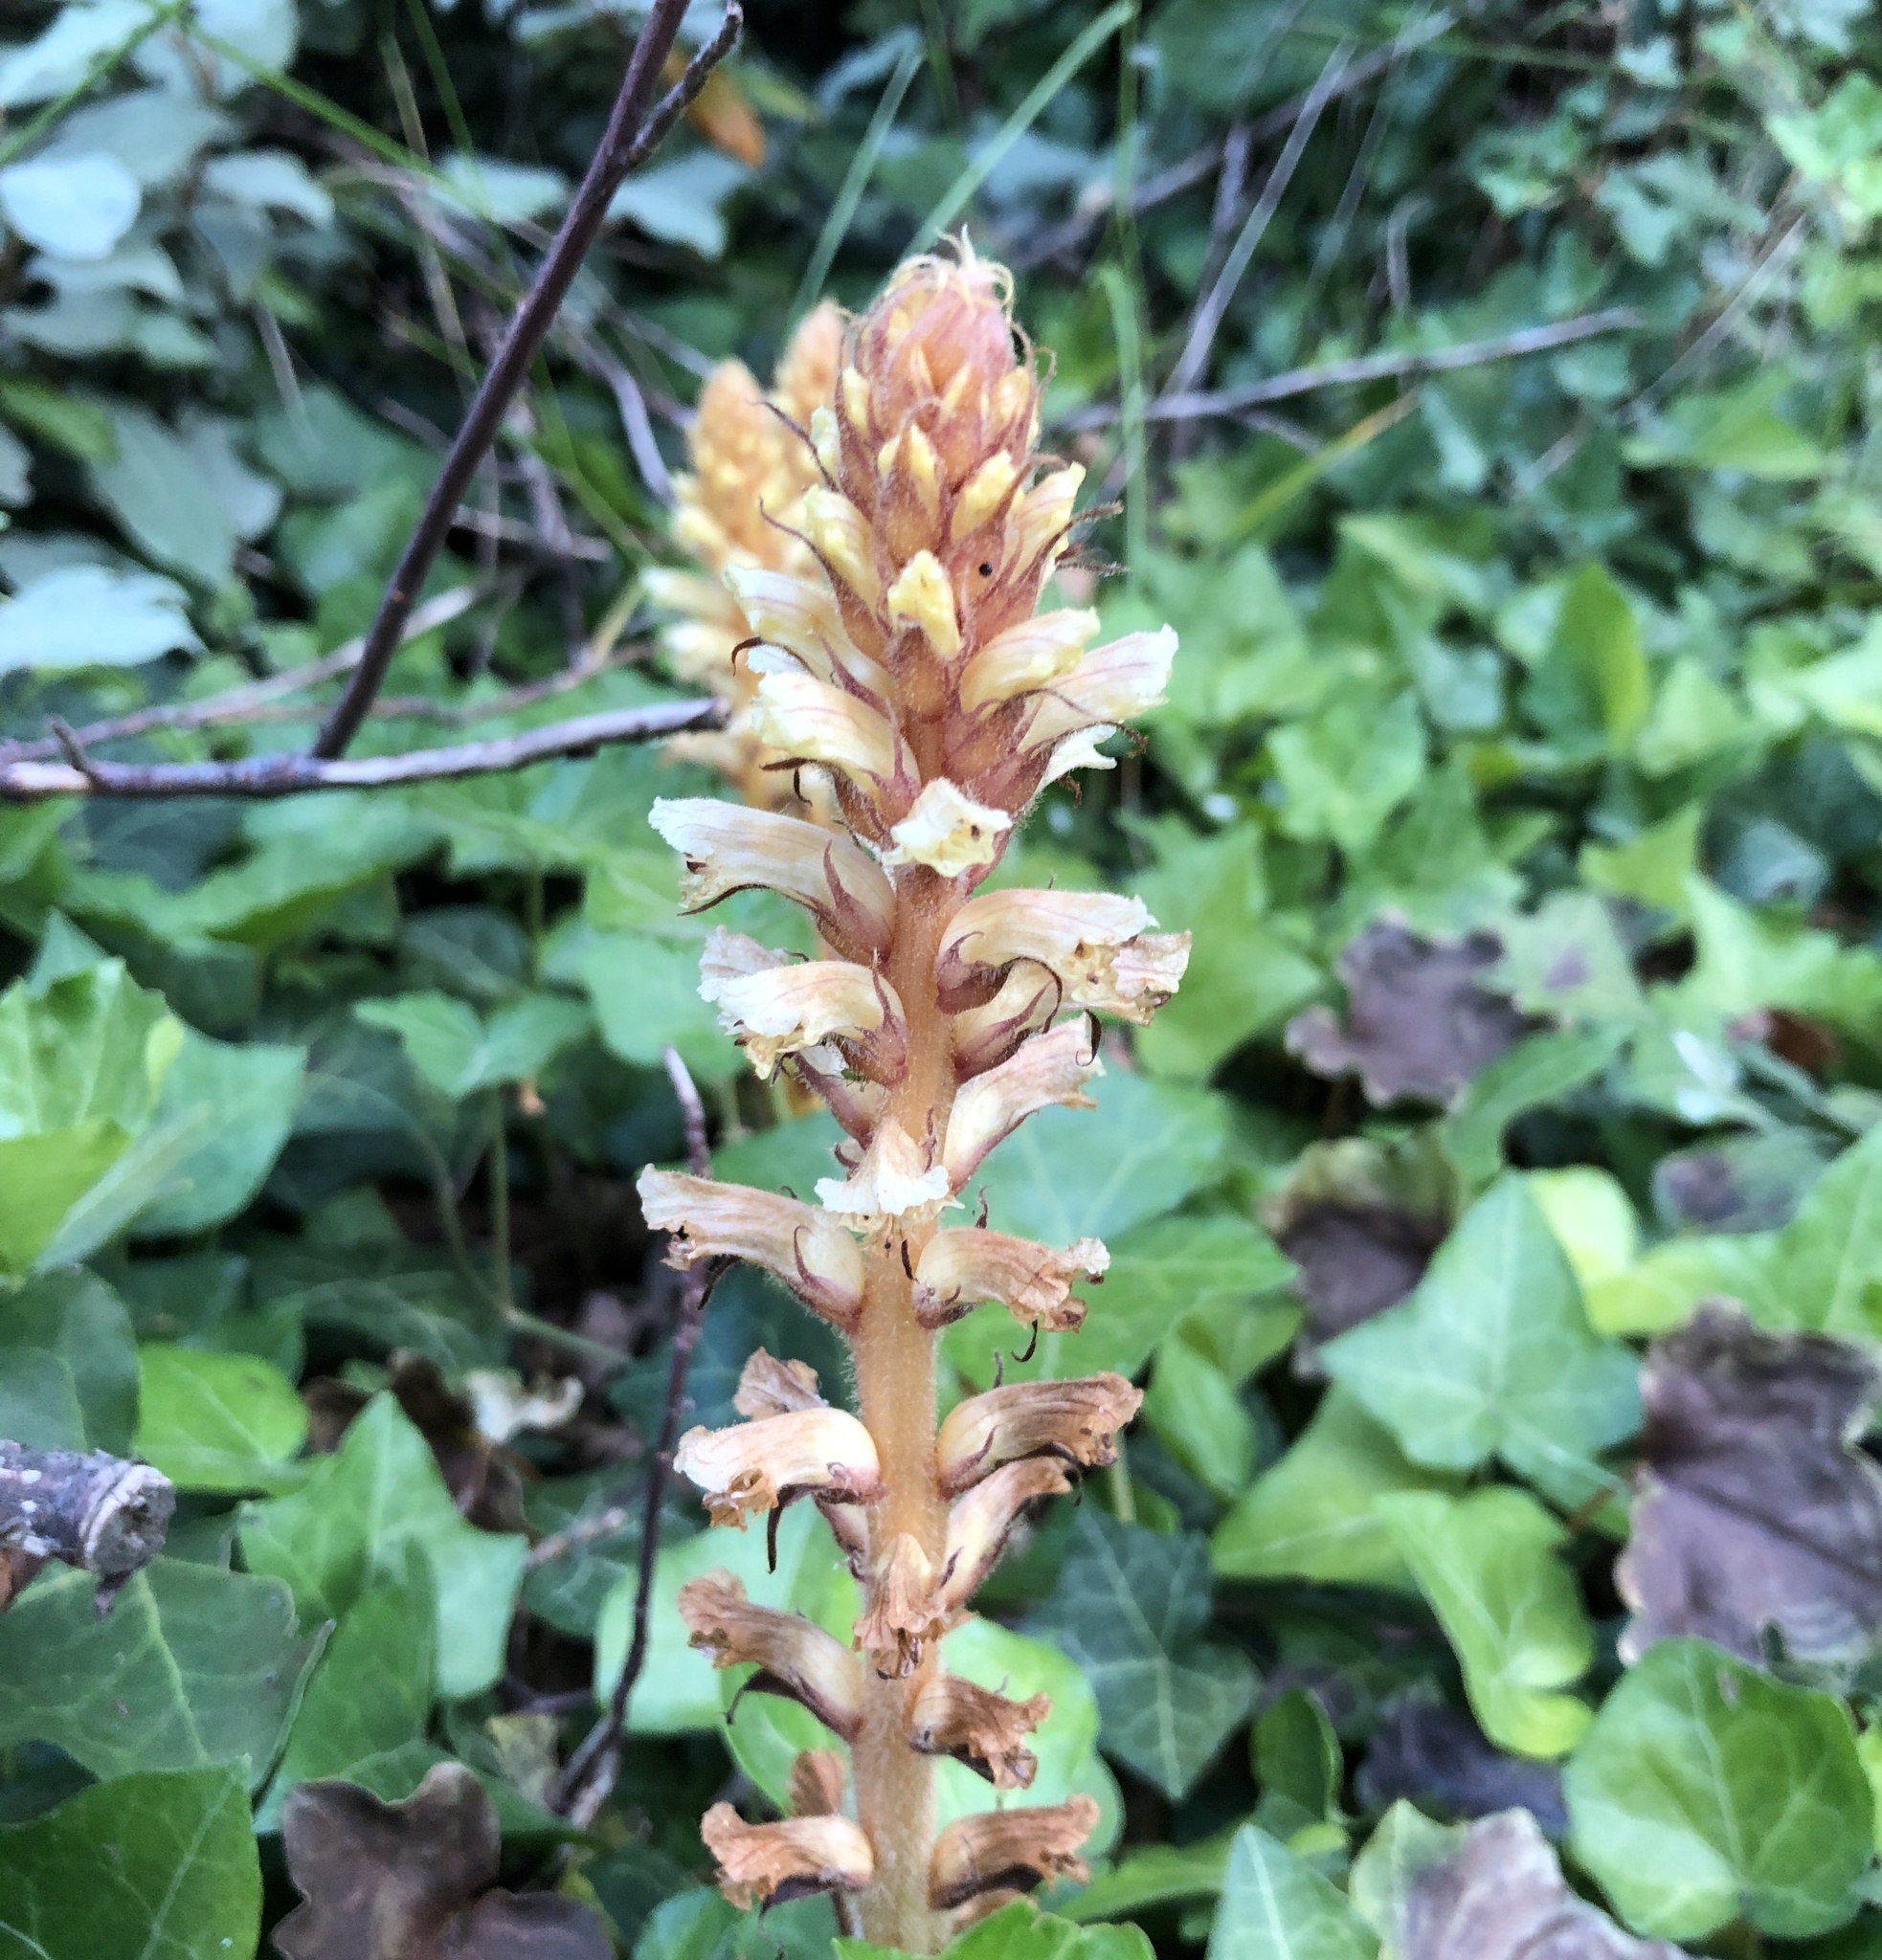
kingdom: Plantae
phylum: Tracheophyta
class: Magnoliopsida
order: Lamiales
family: Orobanchaceae
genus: Orobanche
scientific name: Orobanche hederae
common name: Ivy broomrape
